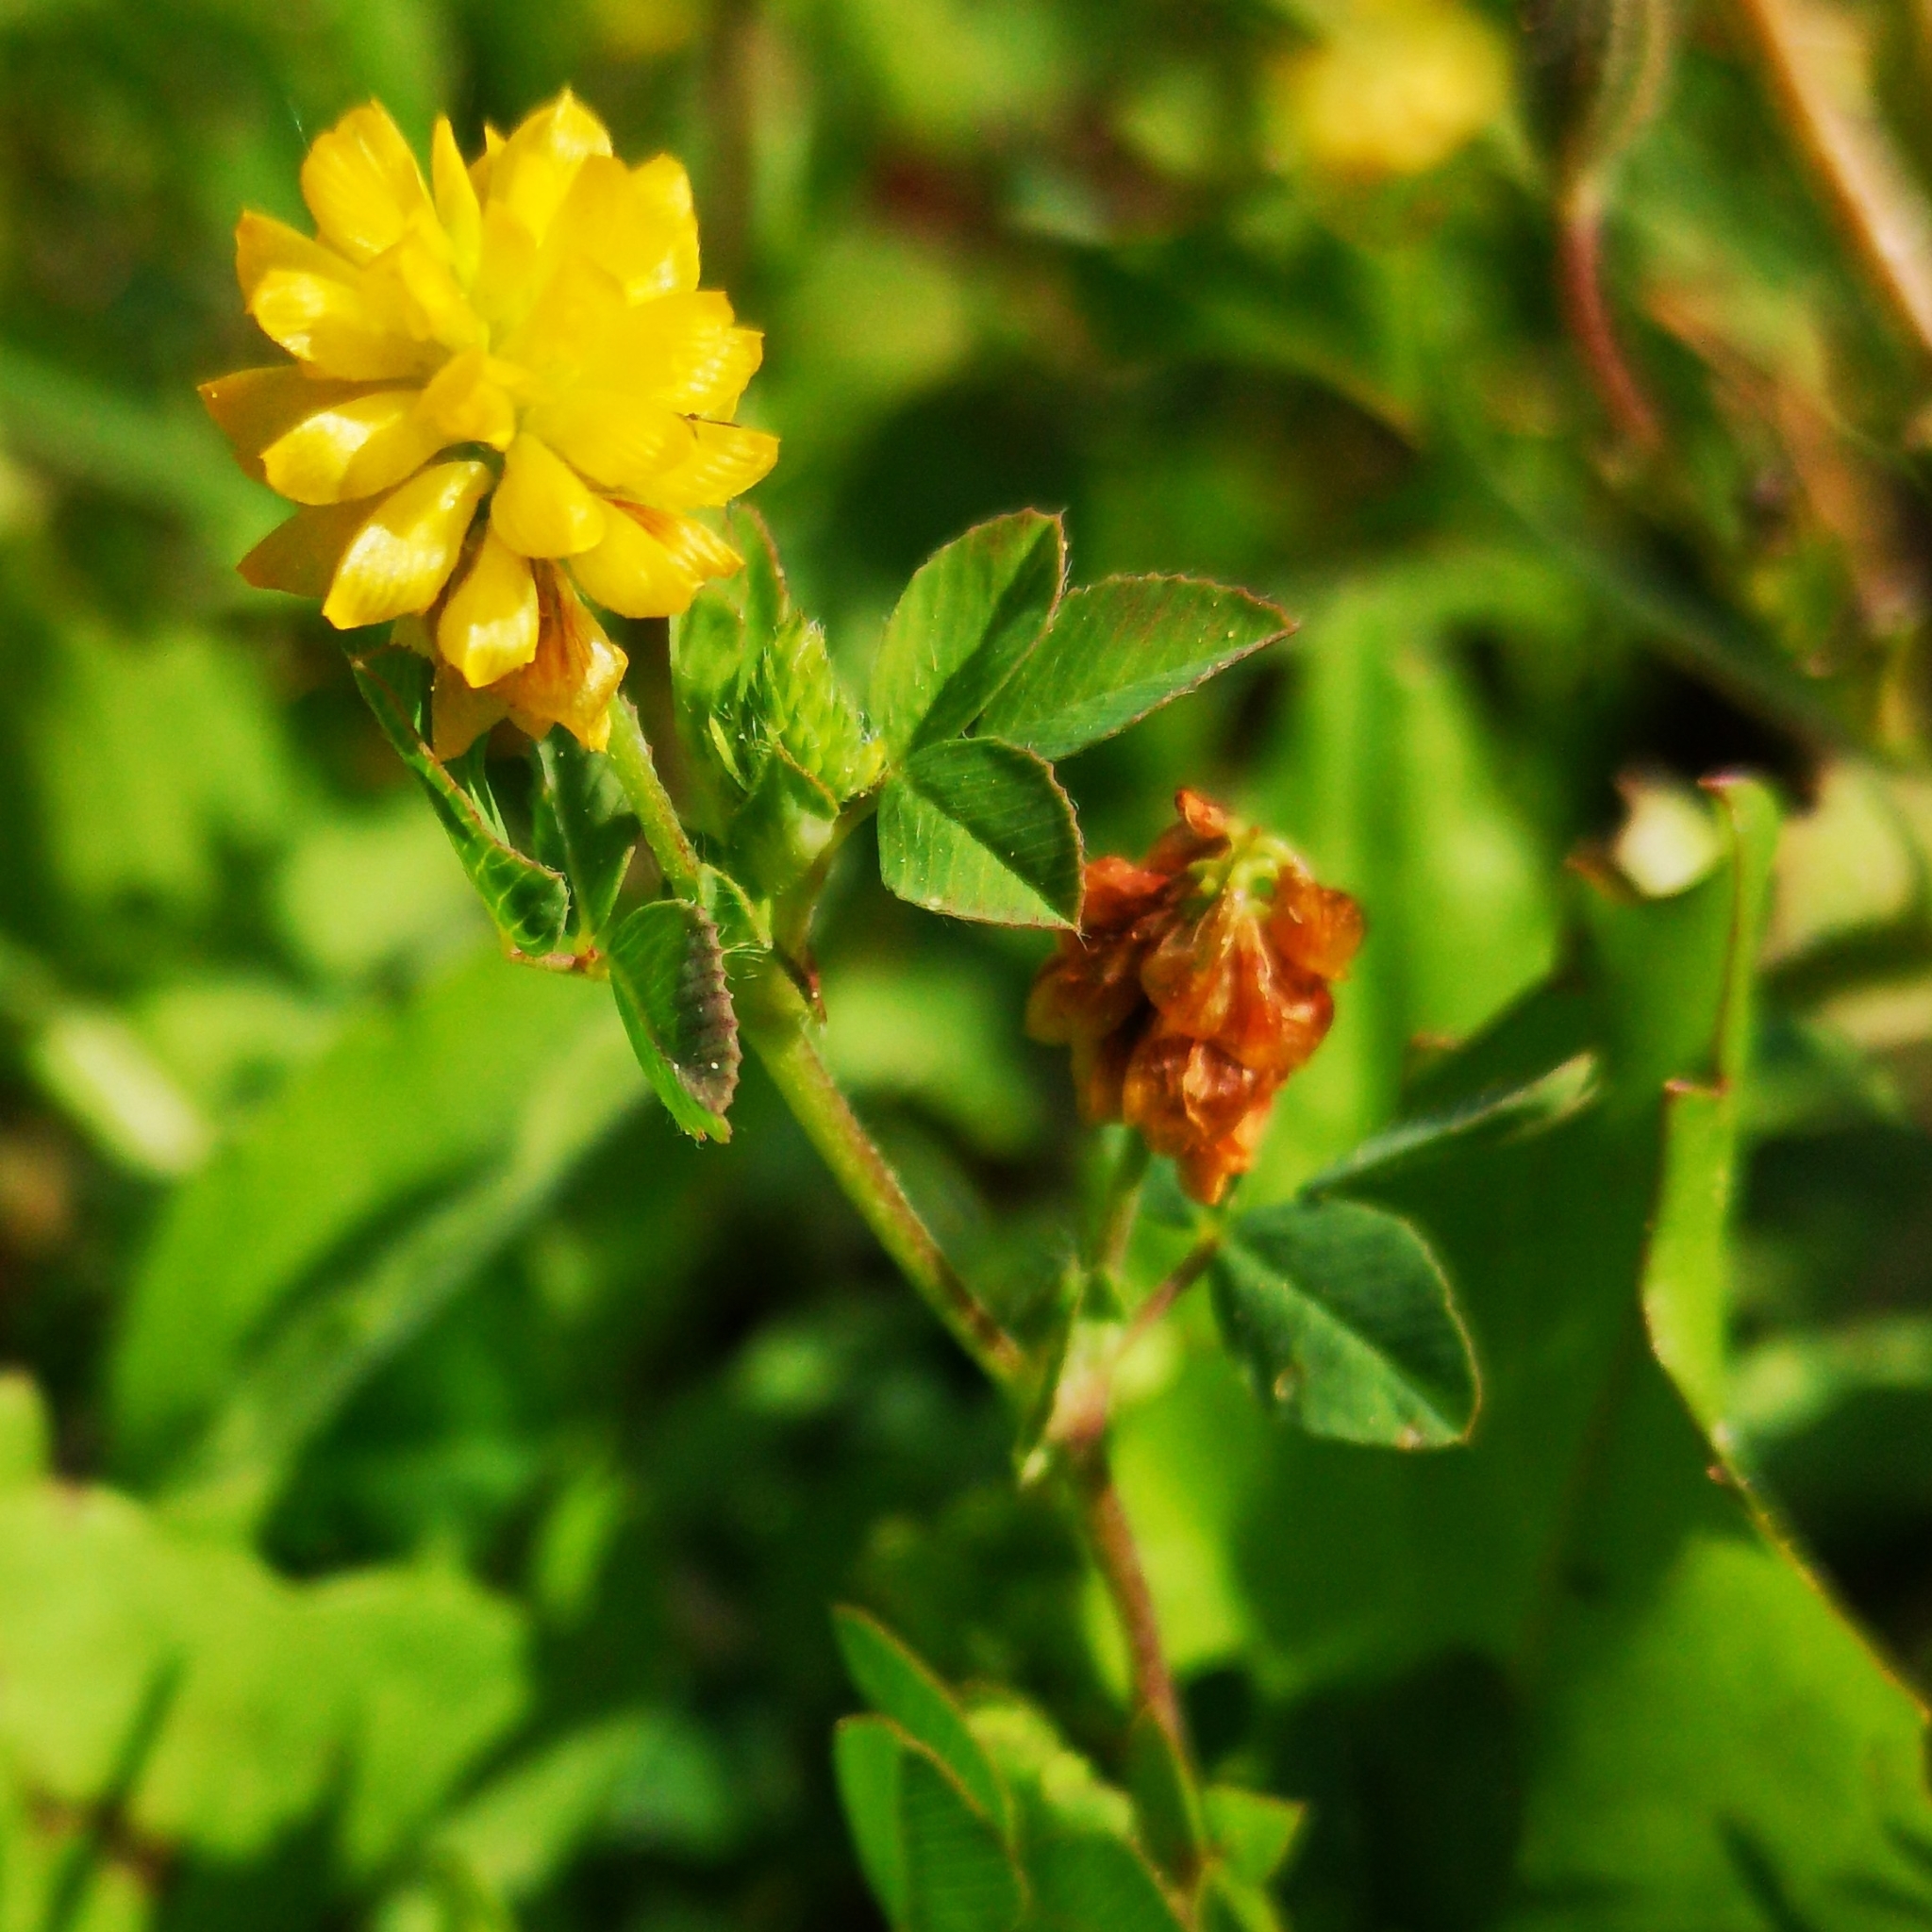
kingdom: Plantae
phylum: Tracheophyta
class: Magnoliopsida
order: Fabales
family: Fabaceae
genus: Trifolium
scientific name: Trifolium campestre
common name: Field clover
